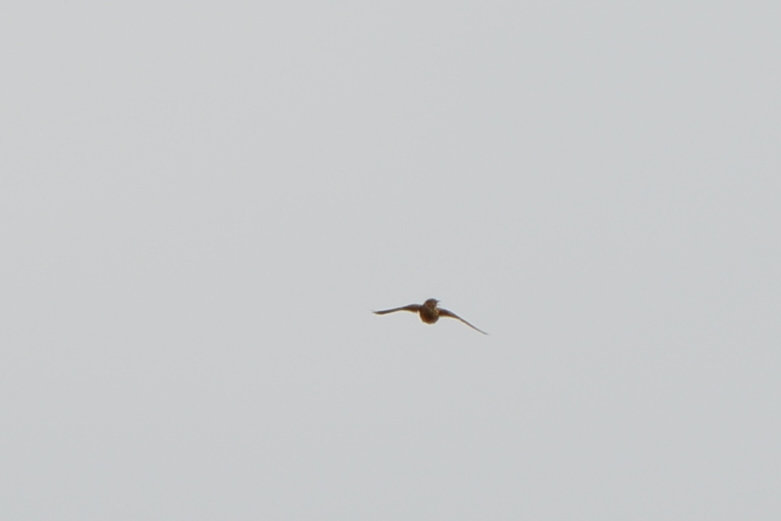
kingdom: Animalia
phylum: Chordata
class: Aves
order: Passeriformes
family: Alaudidae
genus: Alauda
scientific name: Alauda arvensis
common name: Eurasian skylark
